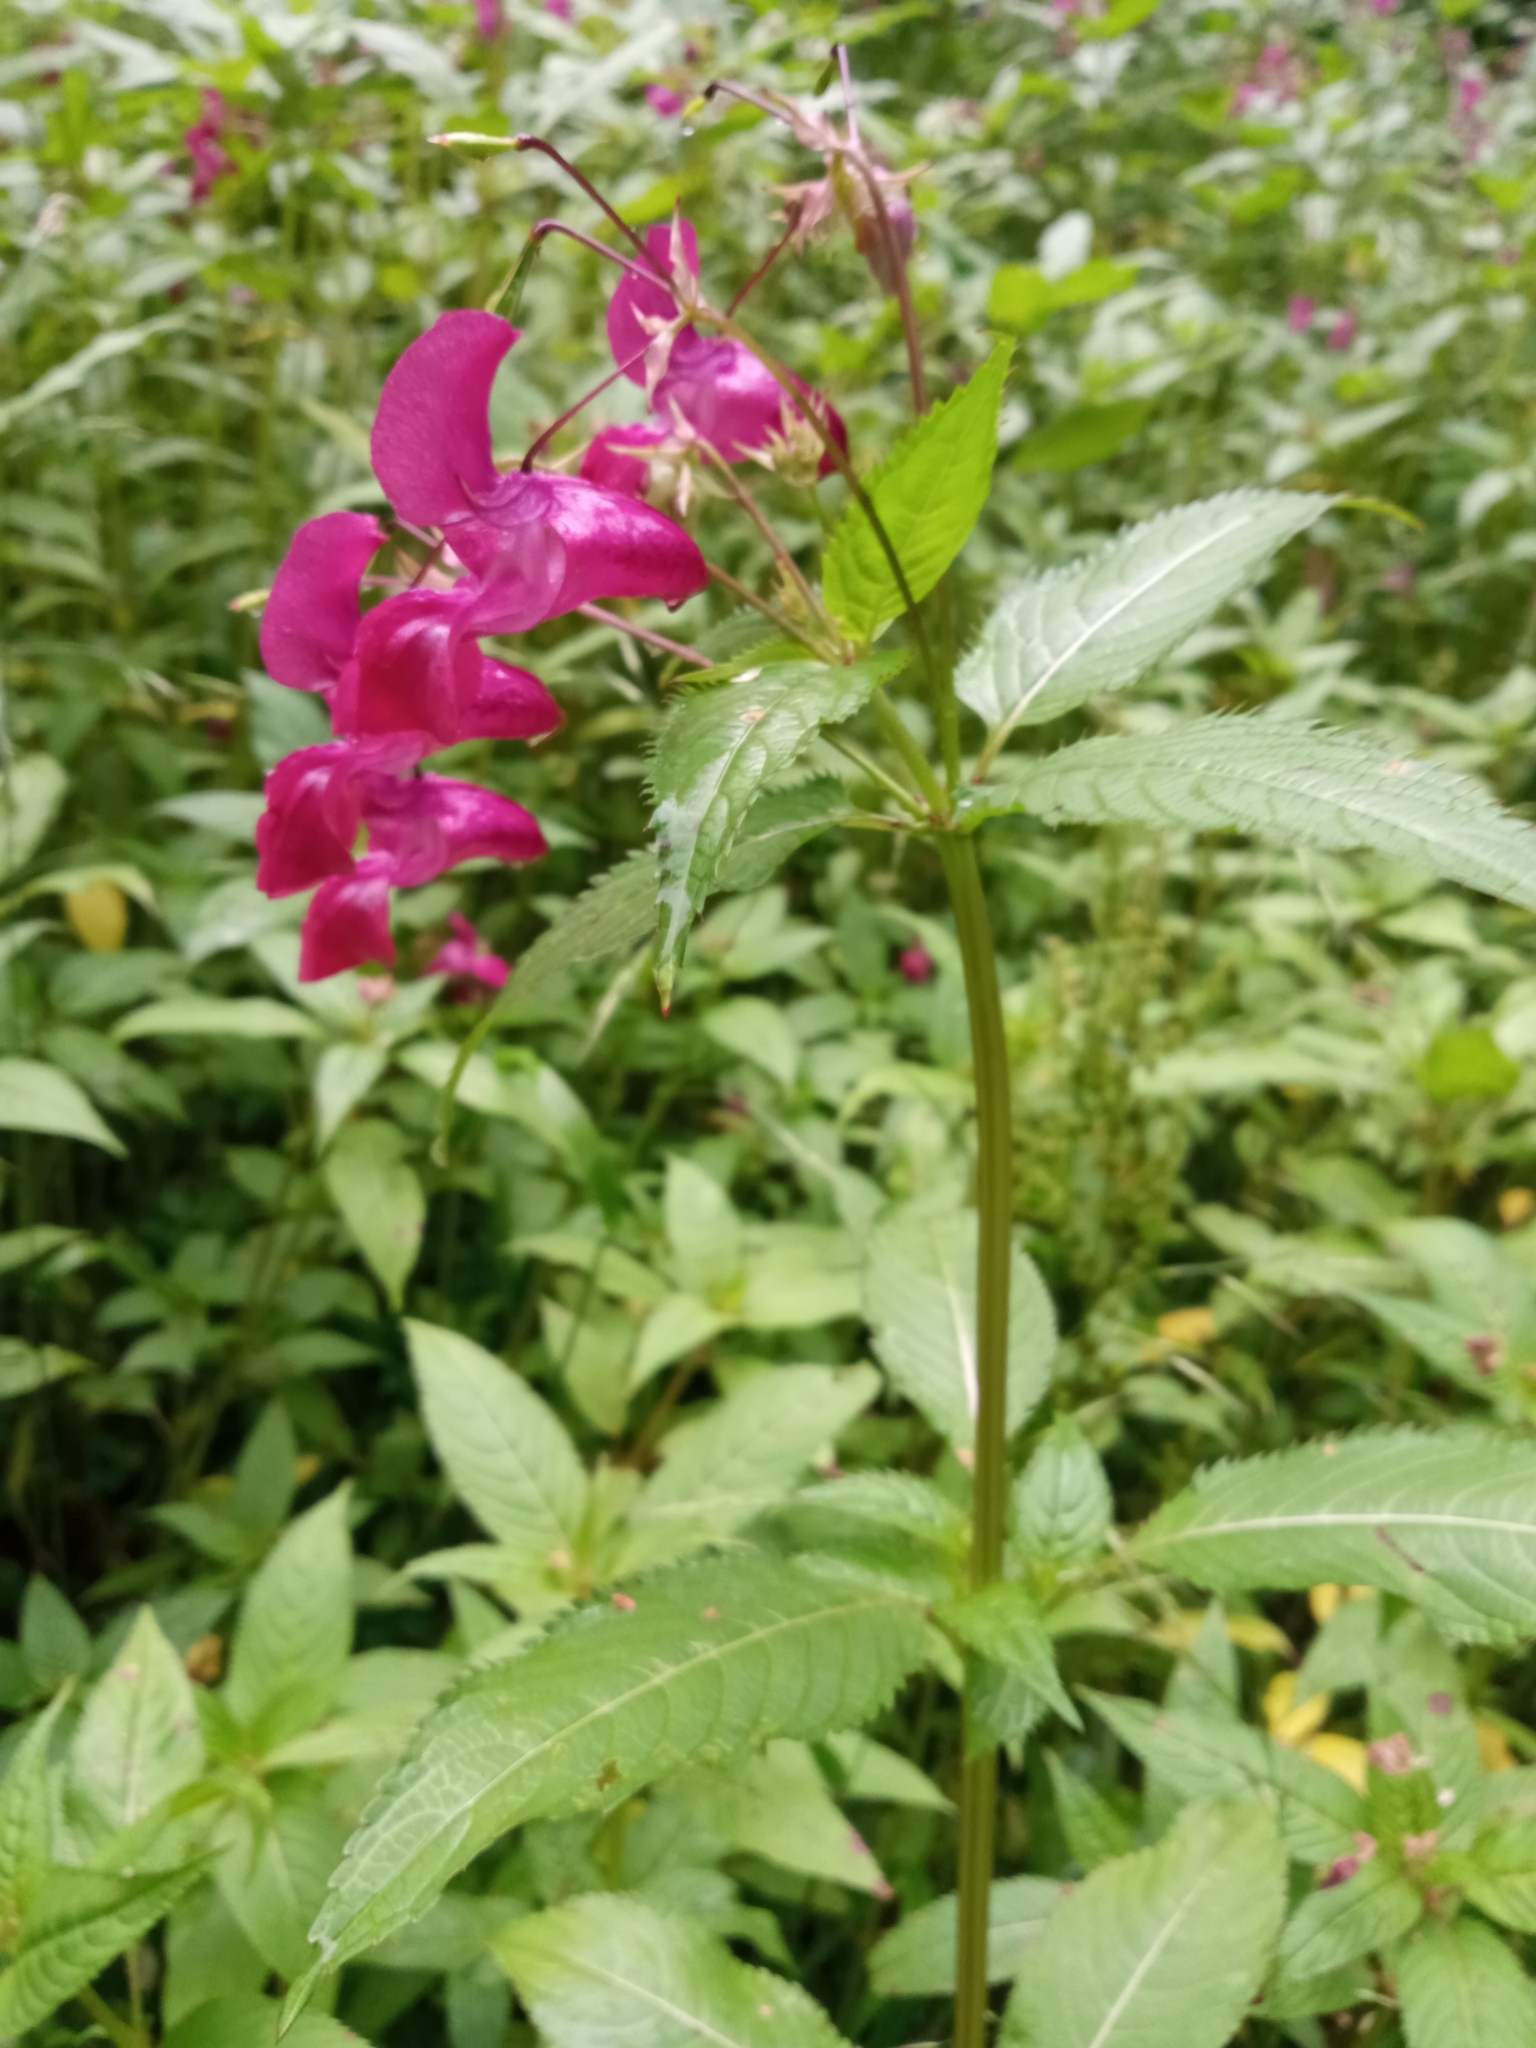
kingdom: Plantae
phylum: Tracheophyta
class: Magnoliopsida
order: Ericales
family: Balsaminaceae
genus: Impatiens
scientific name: Impatiens glandulifera
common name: Himalayan balsam
